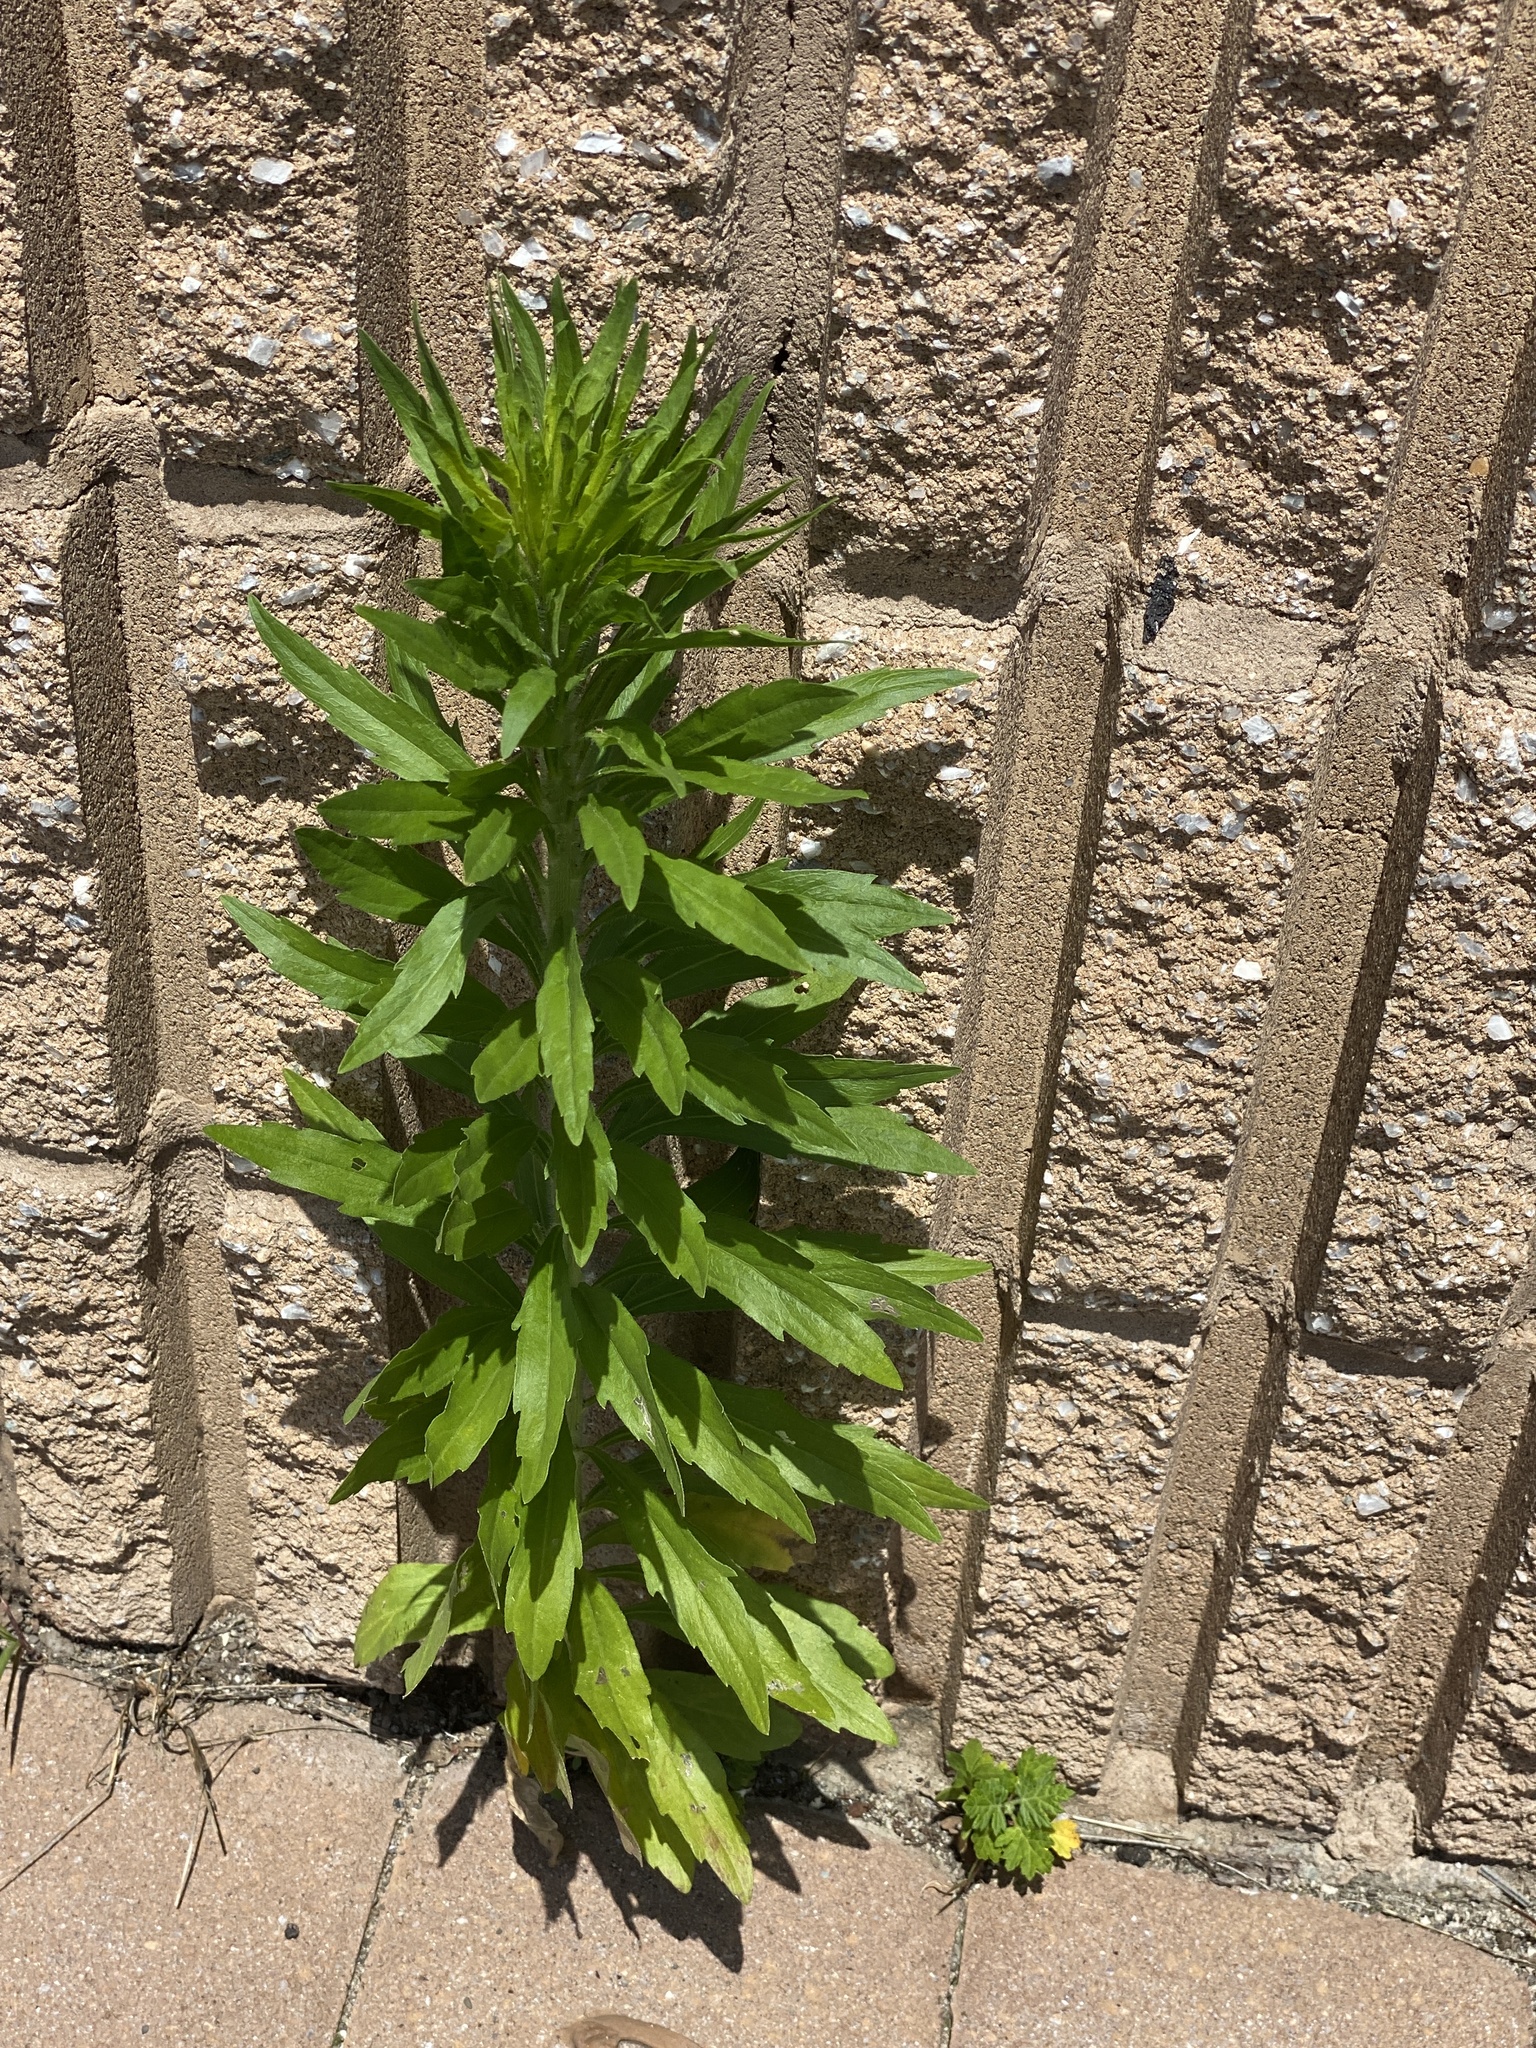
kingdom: Plantae
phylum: Tracheophyta
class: Magnoliopsida
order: Asterales
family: Asteraceae
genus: Erigeron
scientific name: Erigeron canadensis
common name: Canadian fleabane
